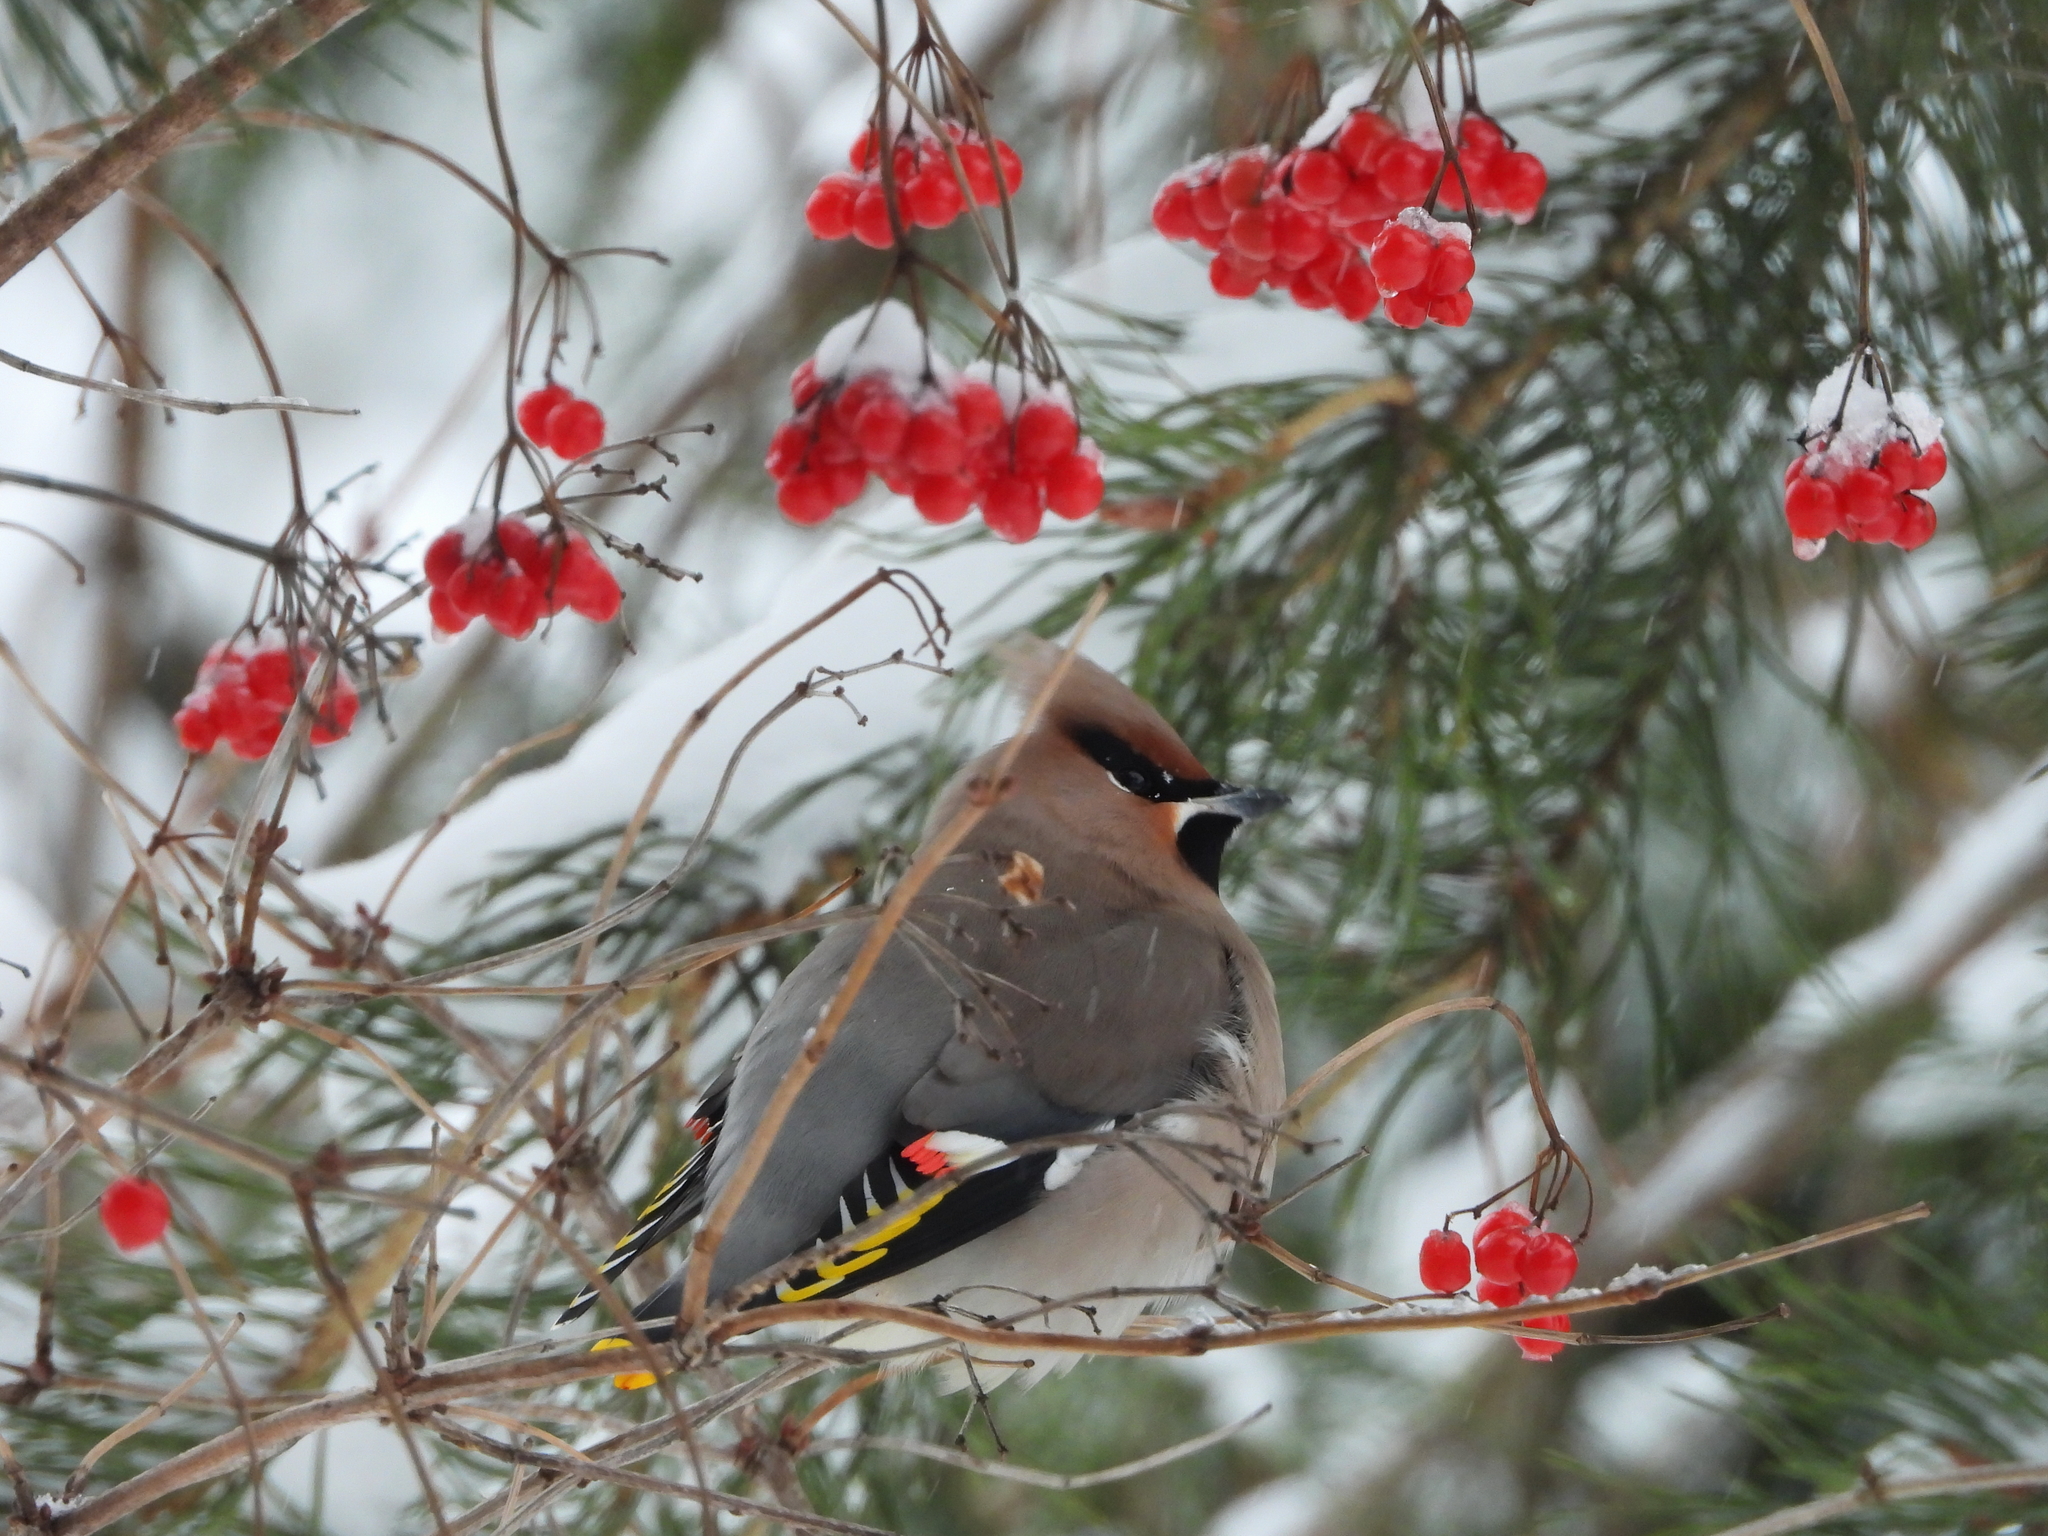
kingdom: Animalia
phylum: Chordata
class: Aves
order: Passeriformes
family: Bombycillidae
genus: Bombycilla
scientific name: Bombycilla garrulus
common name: Bohemian waxwing
